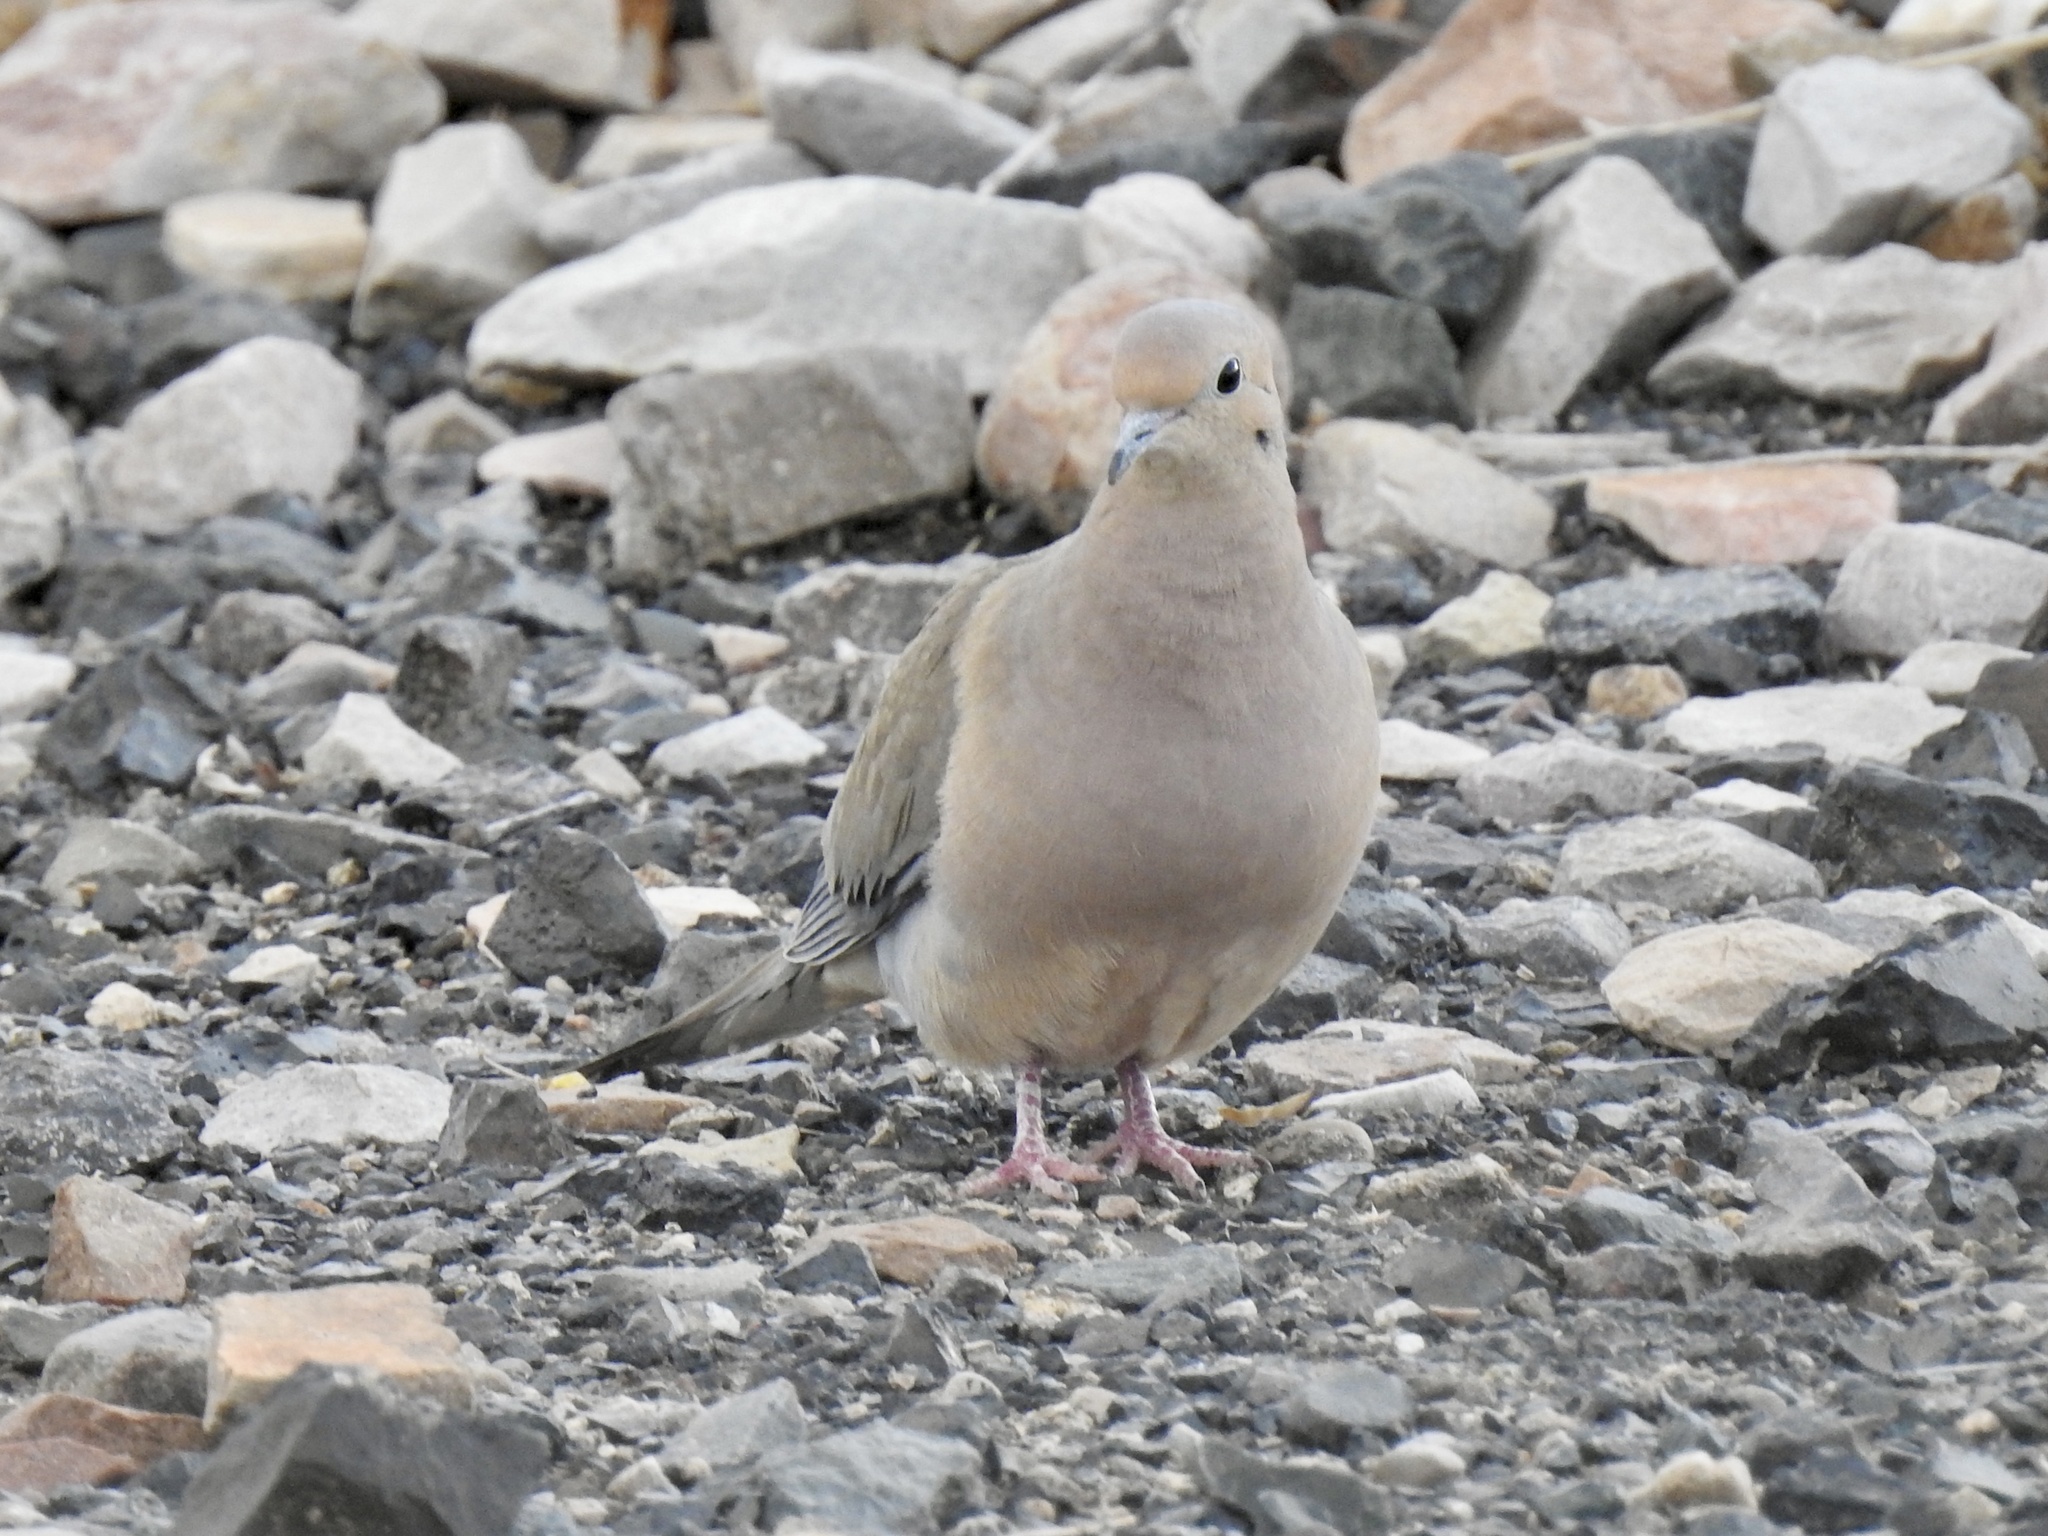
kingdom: Animalia
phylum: Chordata
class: Aves
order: Columbiformes
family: Columbidae
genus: Zenaida
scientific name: Zenaida macroura
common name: Mourning dove
